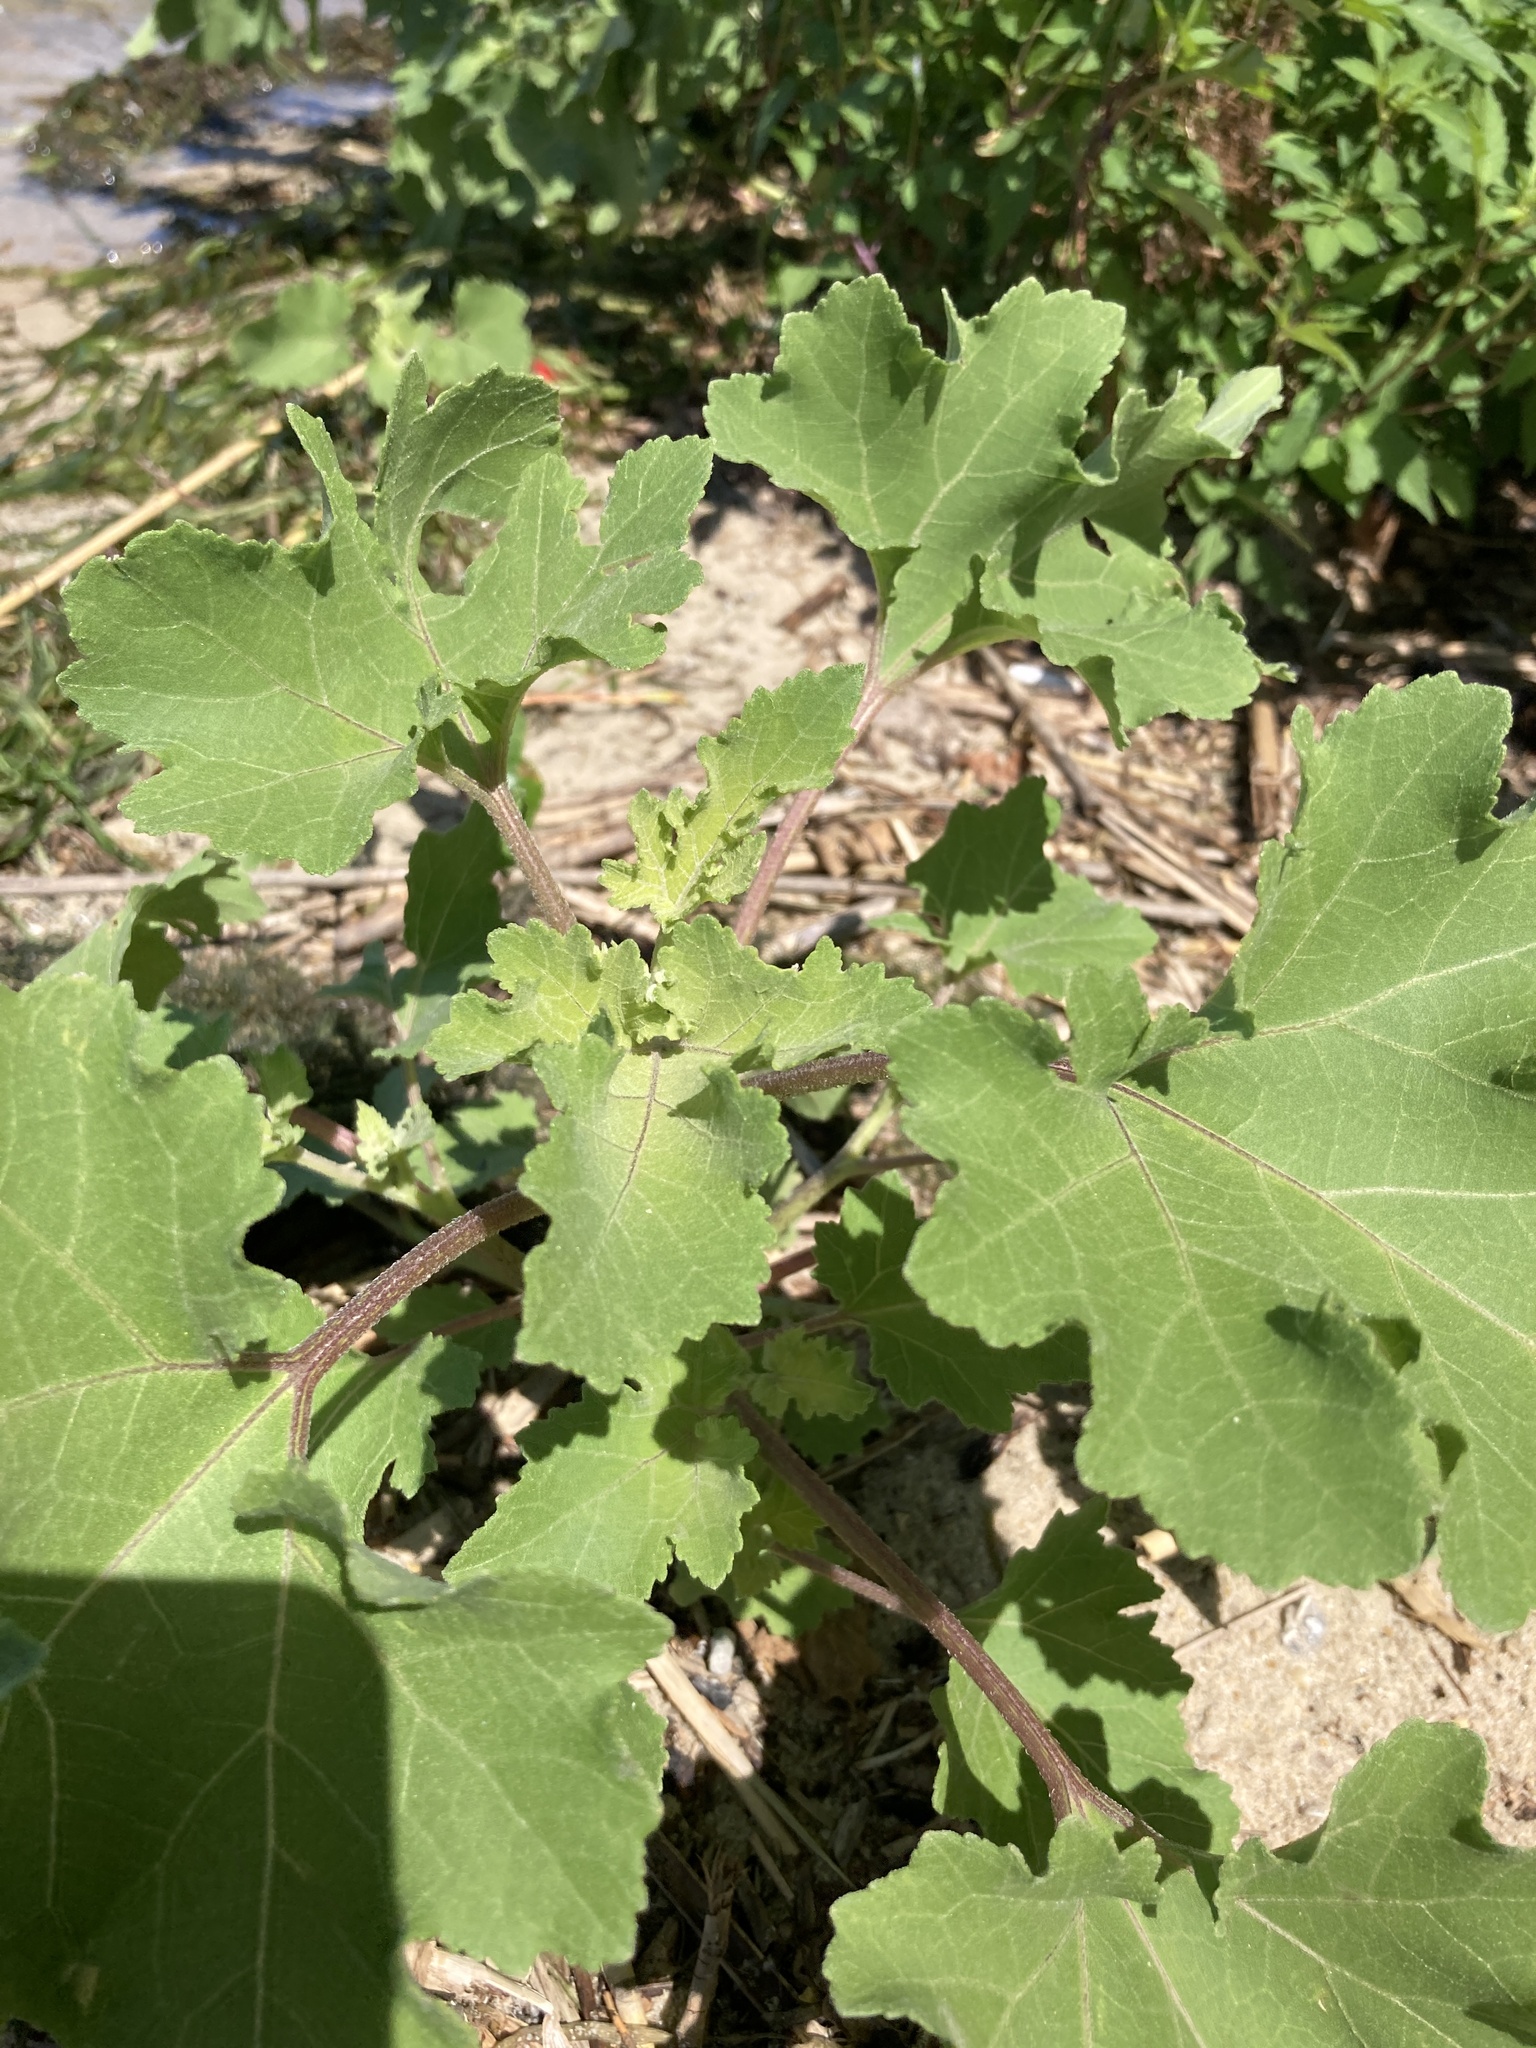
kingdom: Plantae
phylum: Tracheophyta
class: Magnoliopsida
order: Asterales
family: Asteraceae
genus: Xanthium
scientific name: Xanthium orientale
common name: Californian burr
